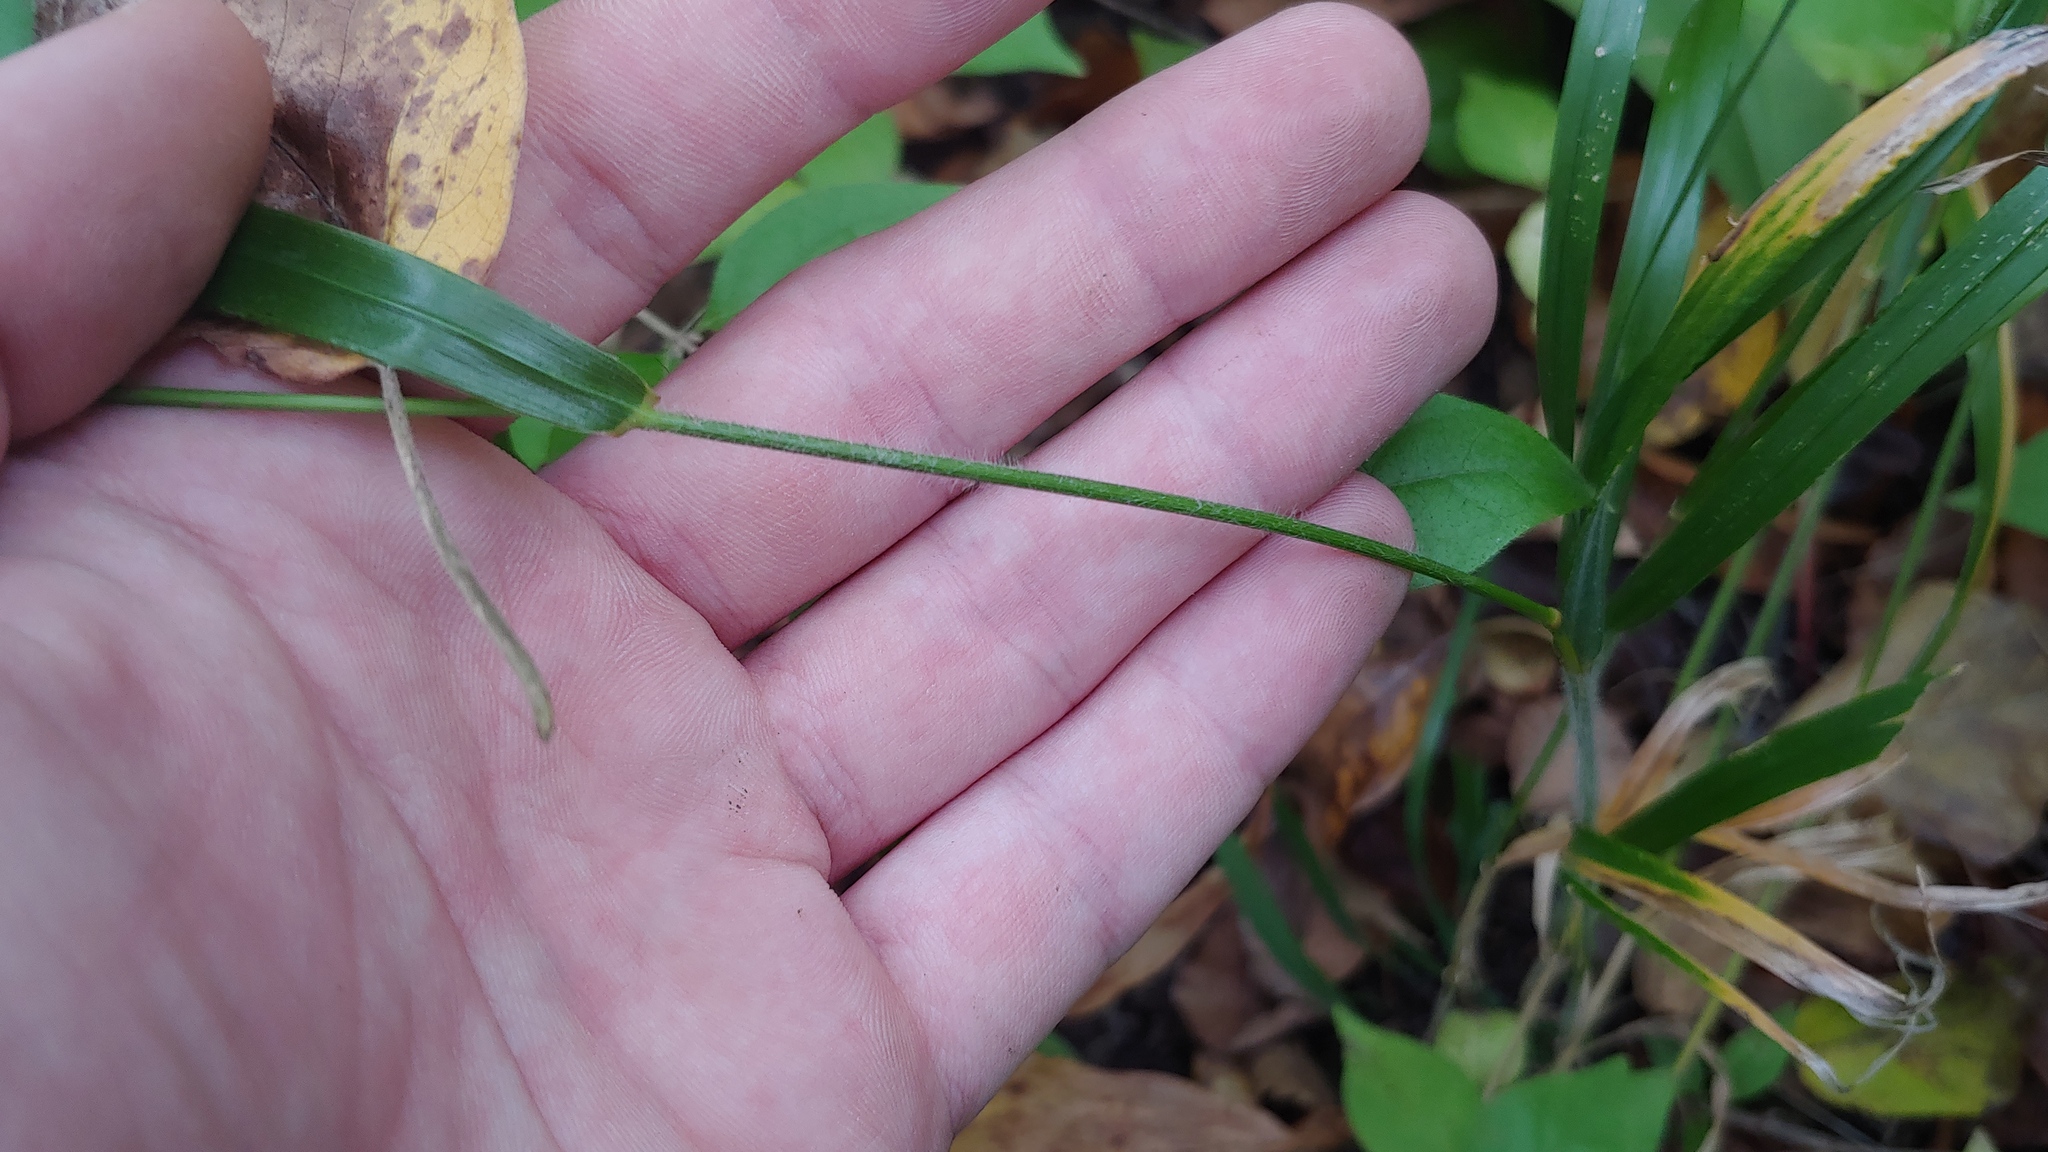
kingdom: Plantae
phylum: Tracheophyta
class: Liliopsida
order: Poales
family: Poaceae
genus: Elymus
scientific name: Elymus villosus
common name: Downy wild rye
